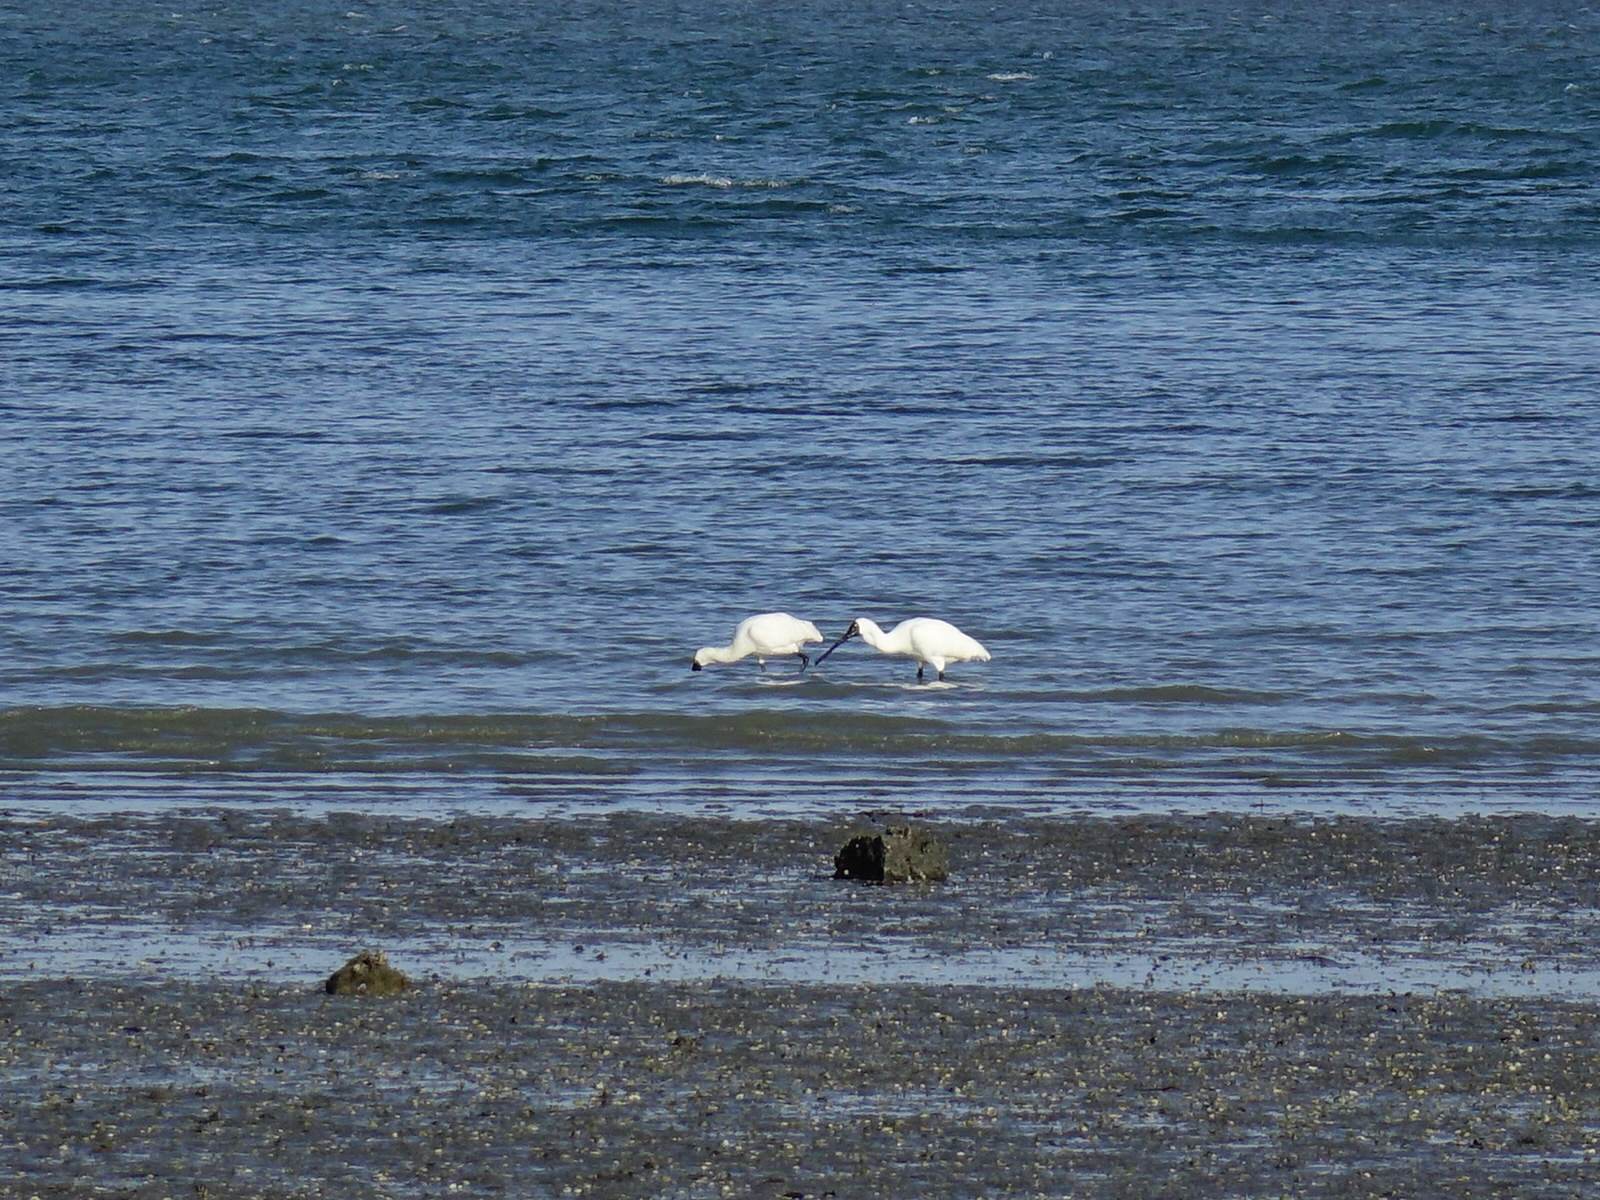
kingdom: Animalia
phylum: Chordata
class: Aves
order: Pelecaniformes
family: Threskiornithidae
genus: Platalea
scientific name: Platalea regia
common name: Royal spoonbill
